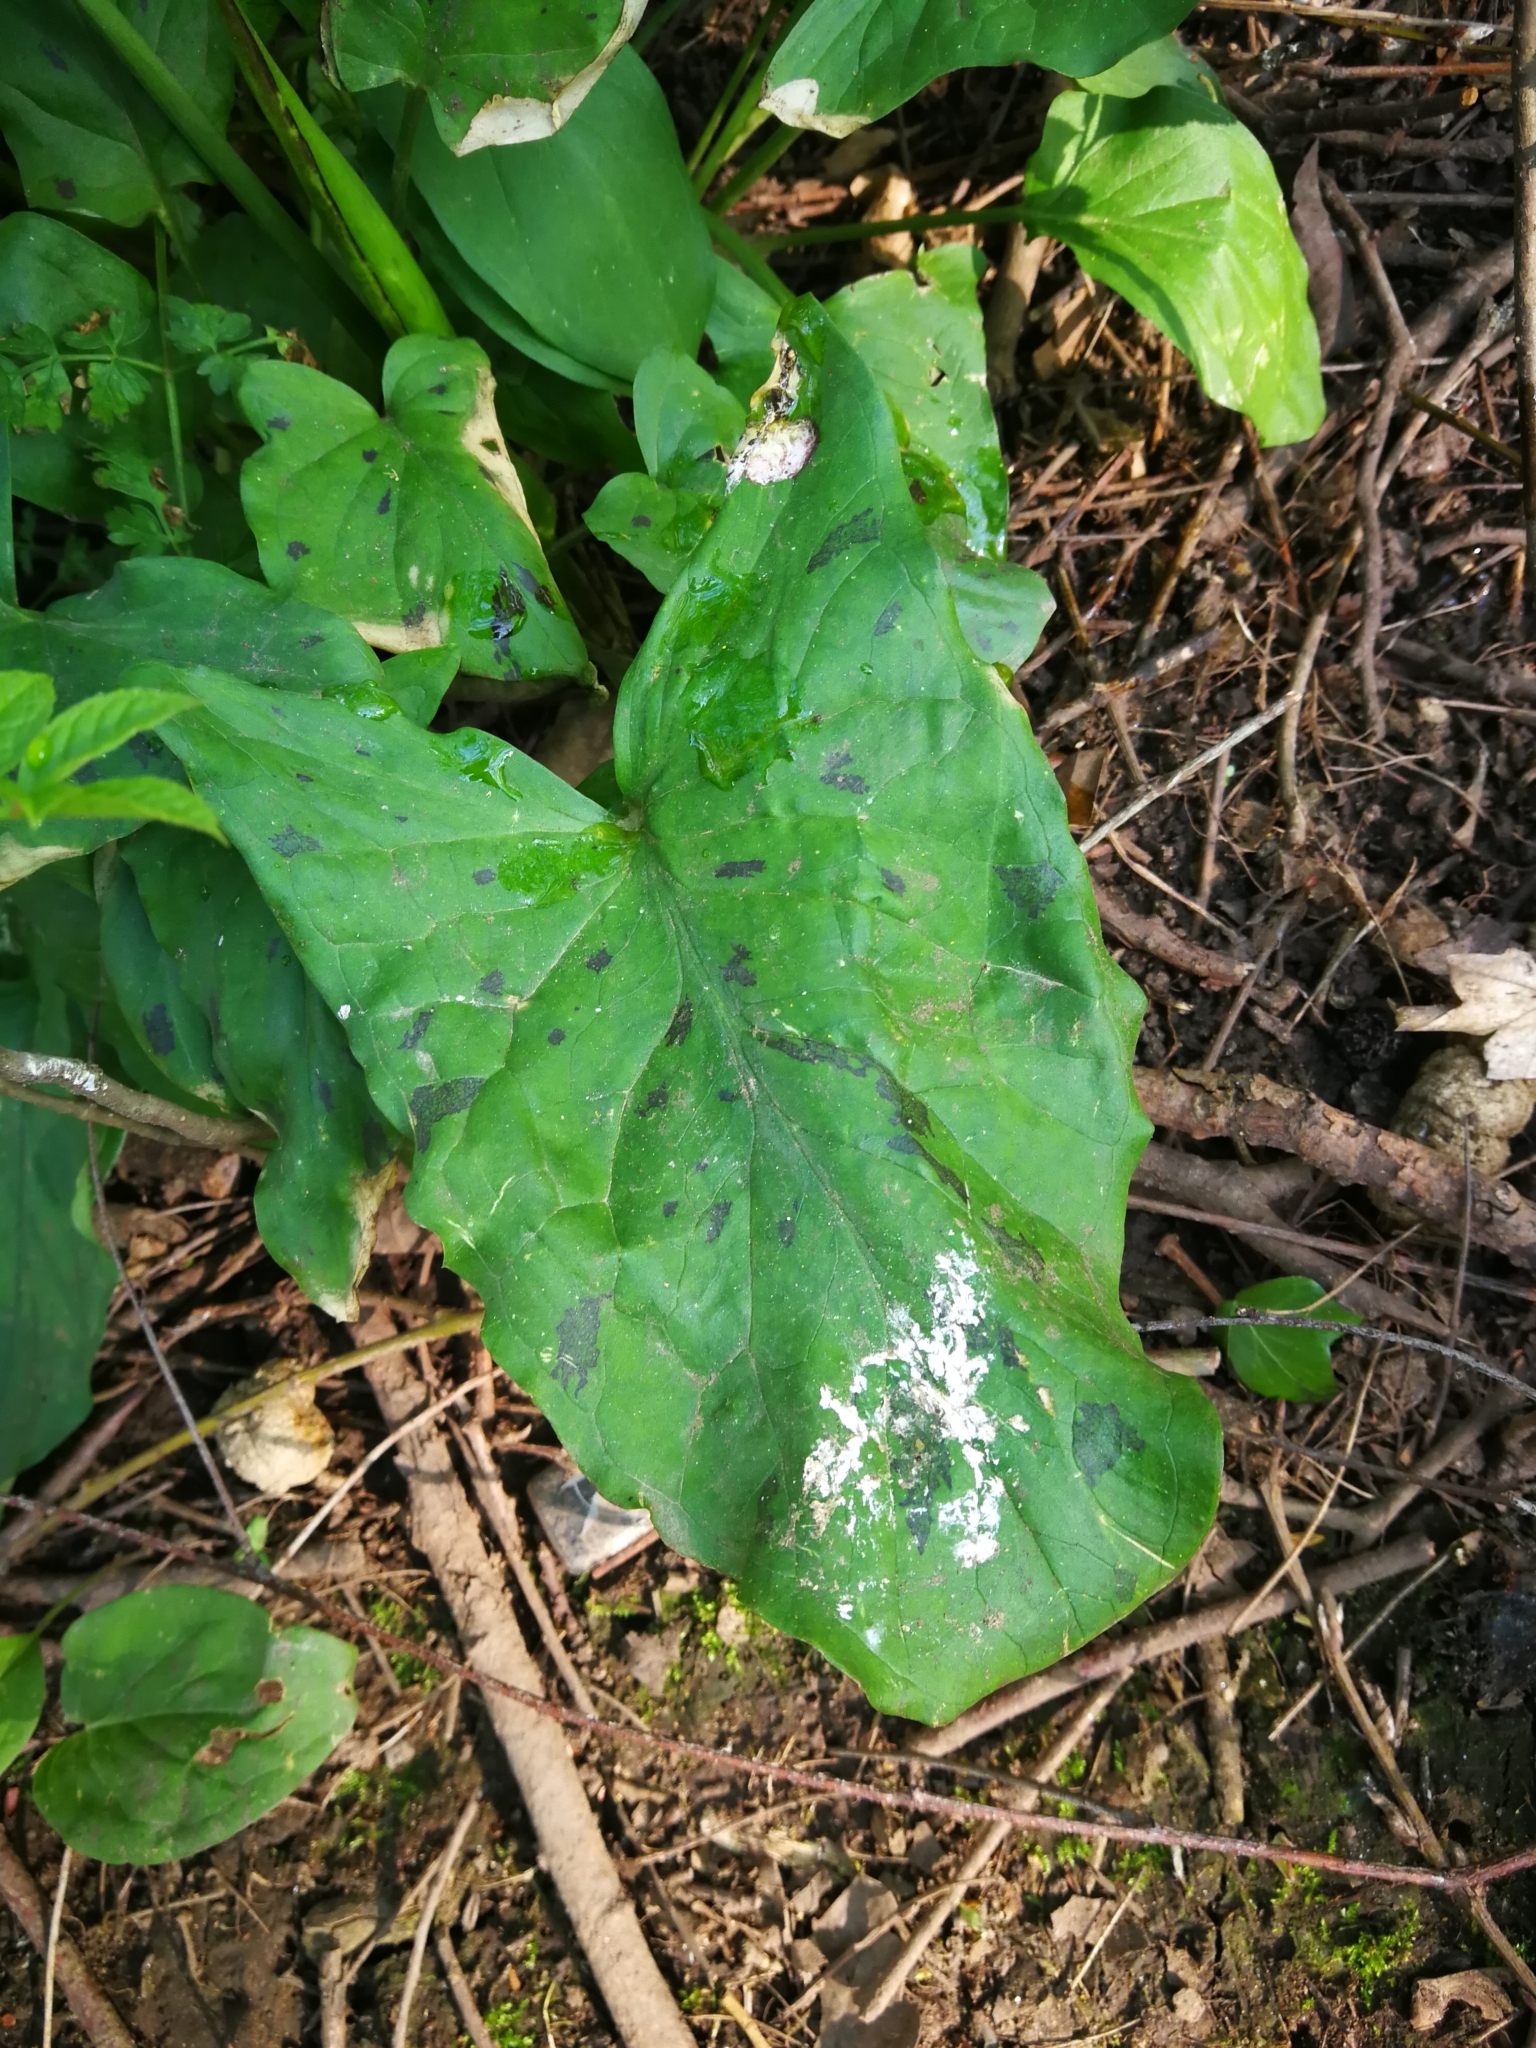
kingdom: Plantae
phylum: Tracheophyta
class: Liliopsida
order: Alismatales
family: Araceae
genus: Arum
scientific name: Arum maculatum
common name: Lords-and-ladies
